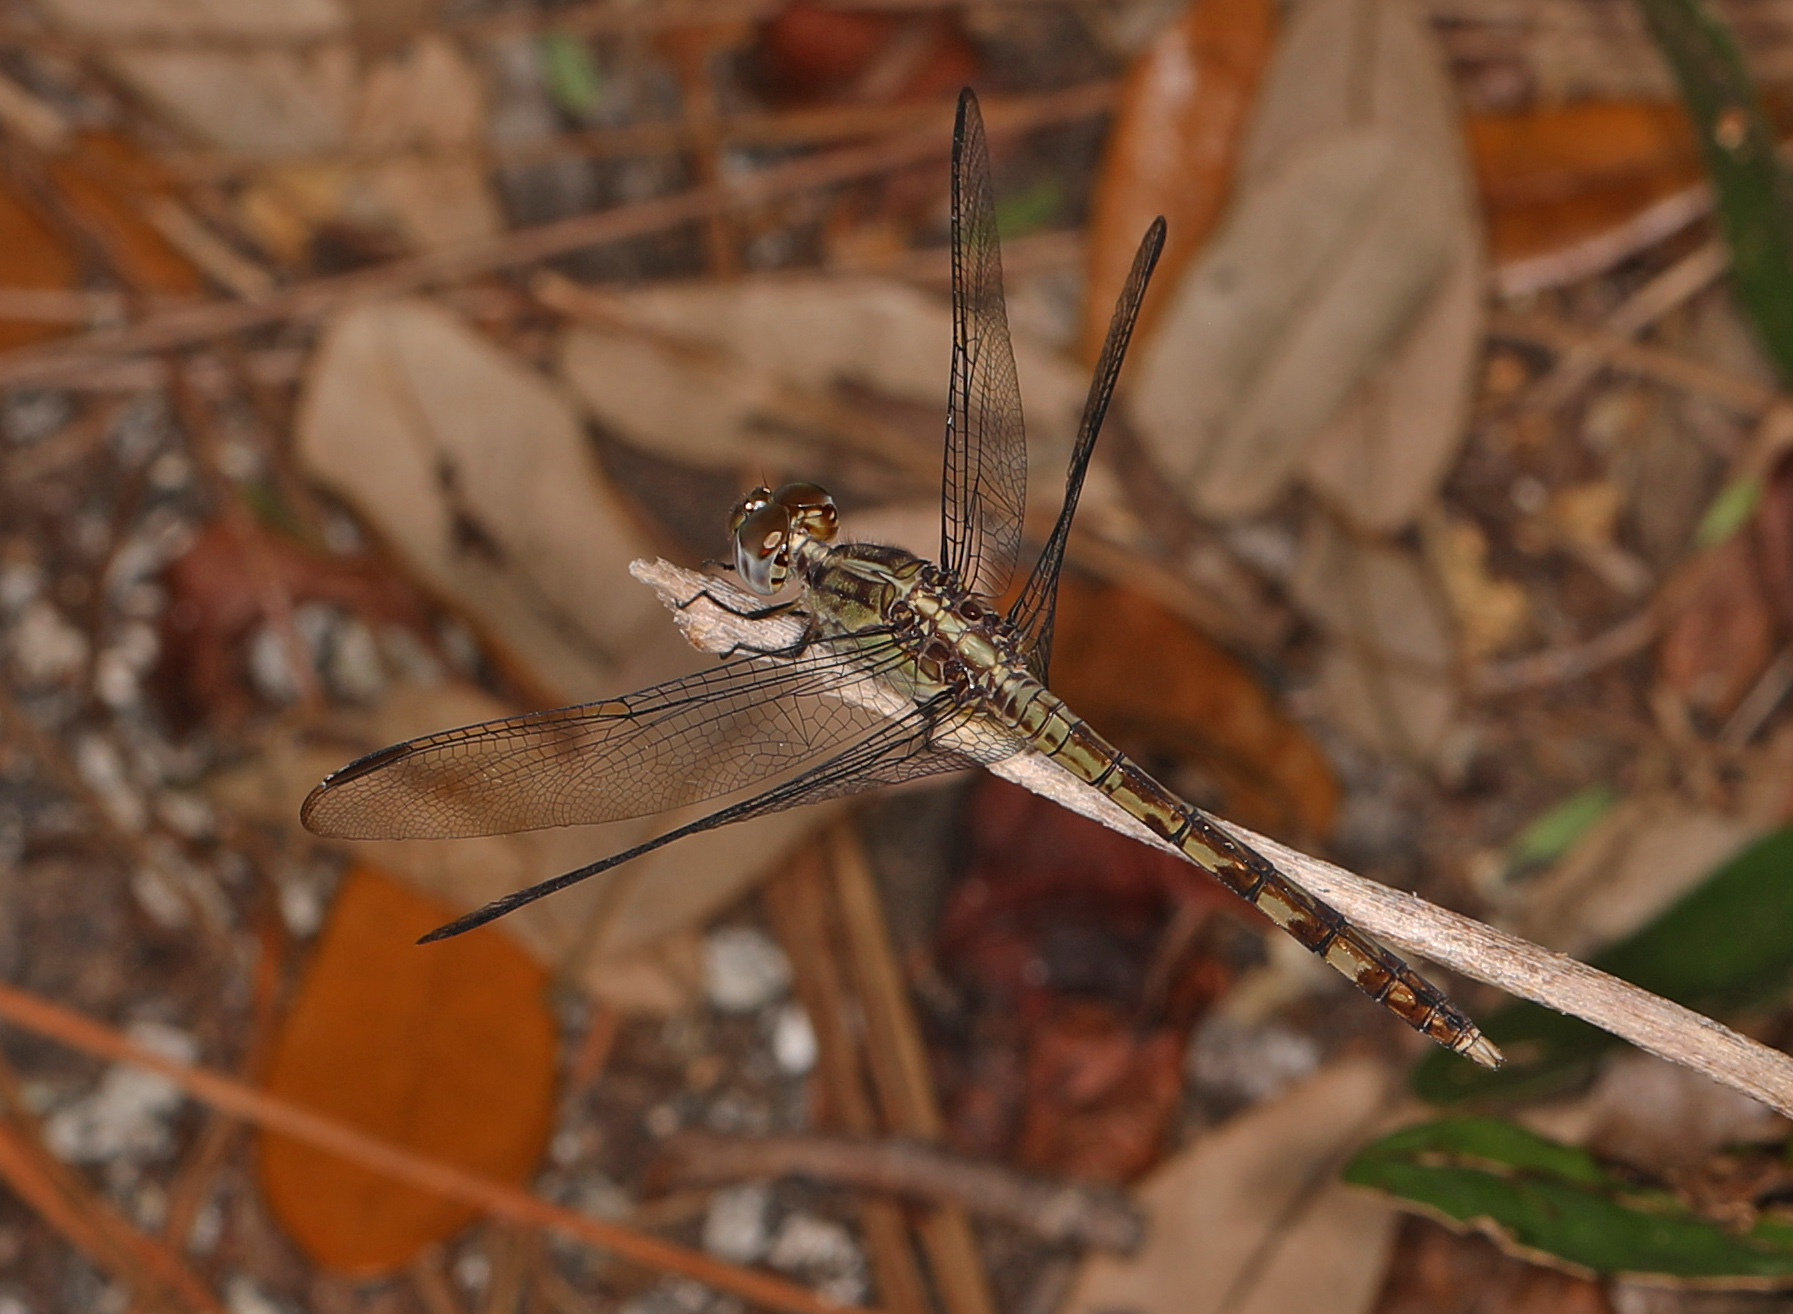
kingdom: Animalia
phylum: Arthropoda
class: Insecta
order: Odonata
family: Libellulidae
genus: Erythrodiplax
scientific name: Erythrodiplax umbrata
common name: Band-winged dragonlet
